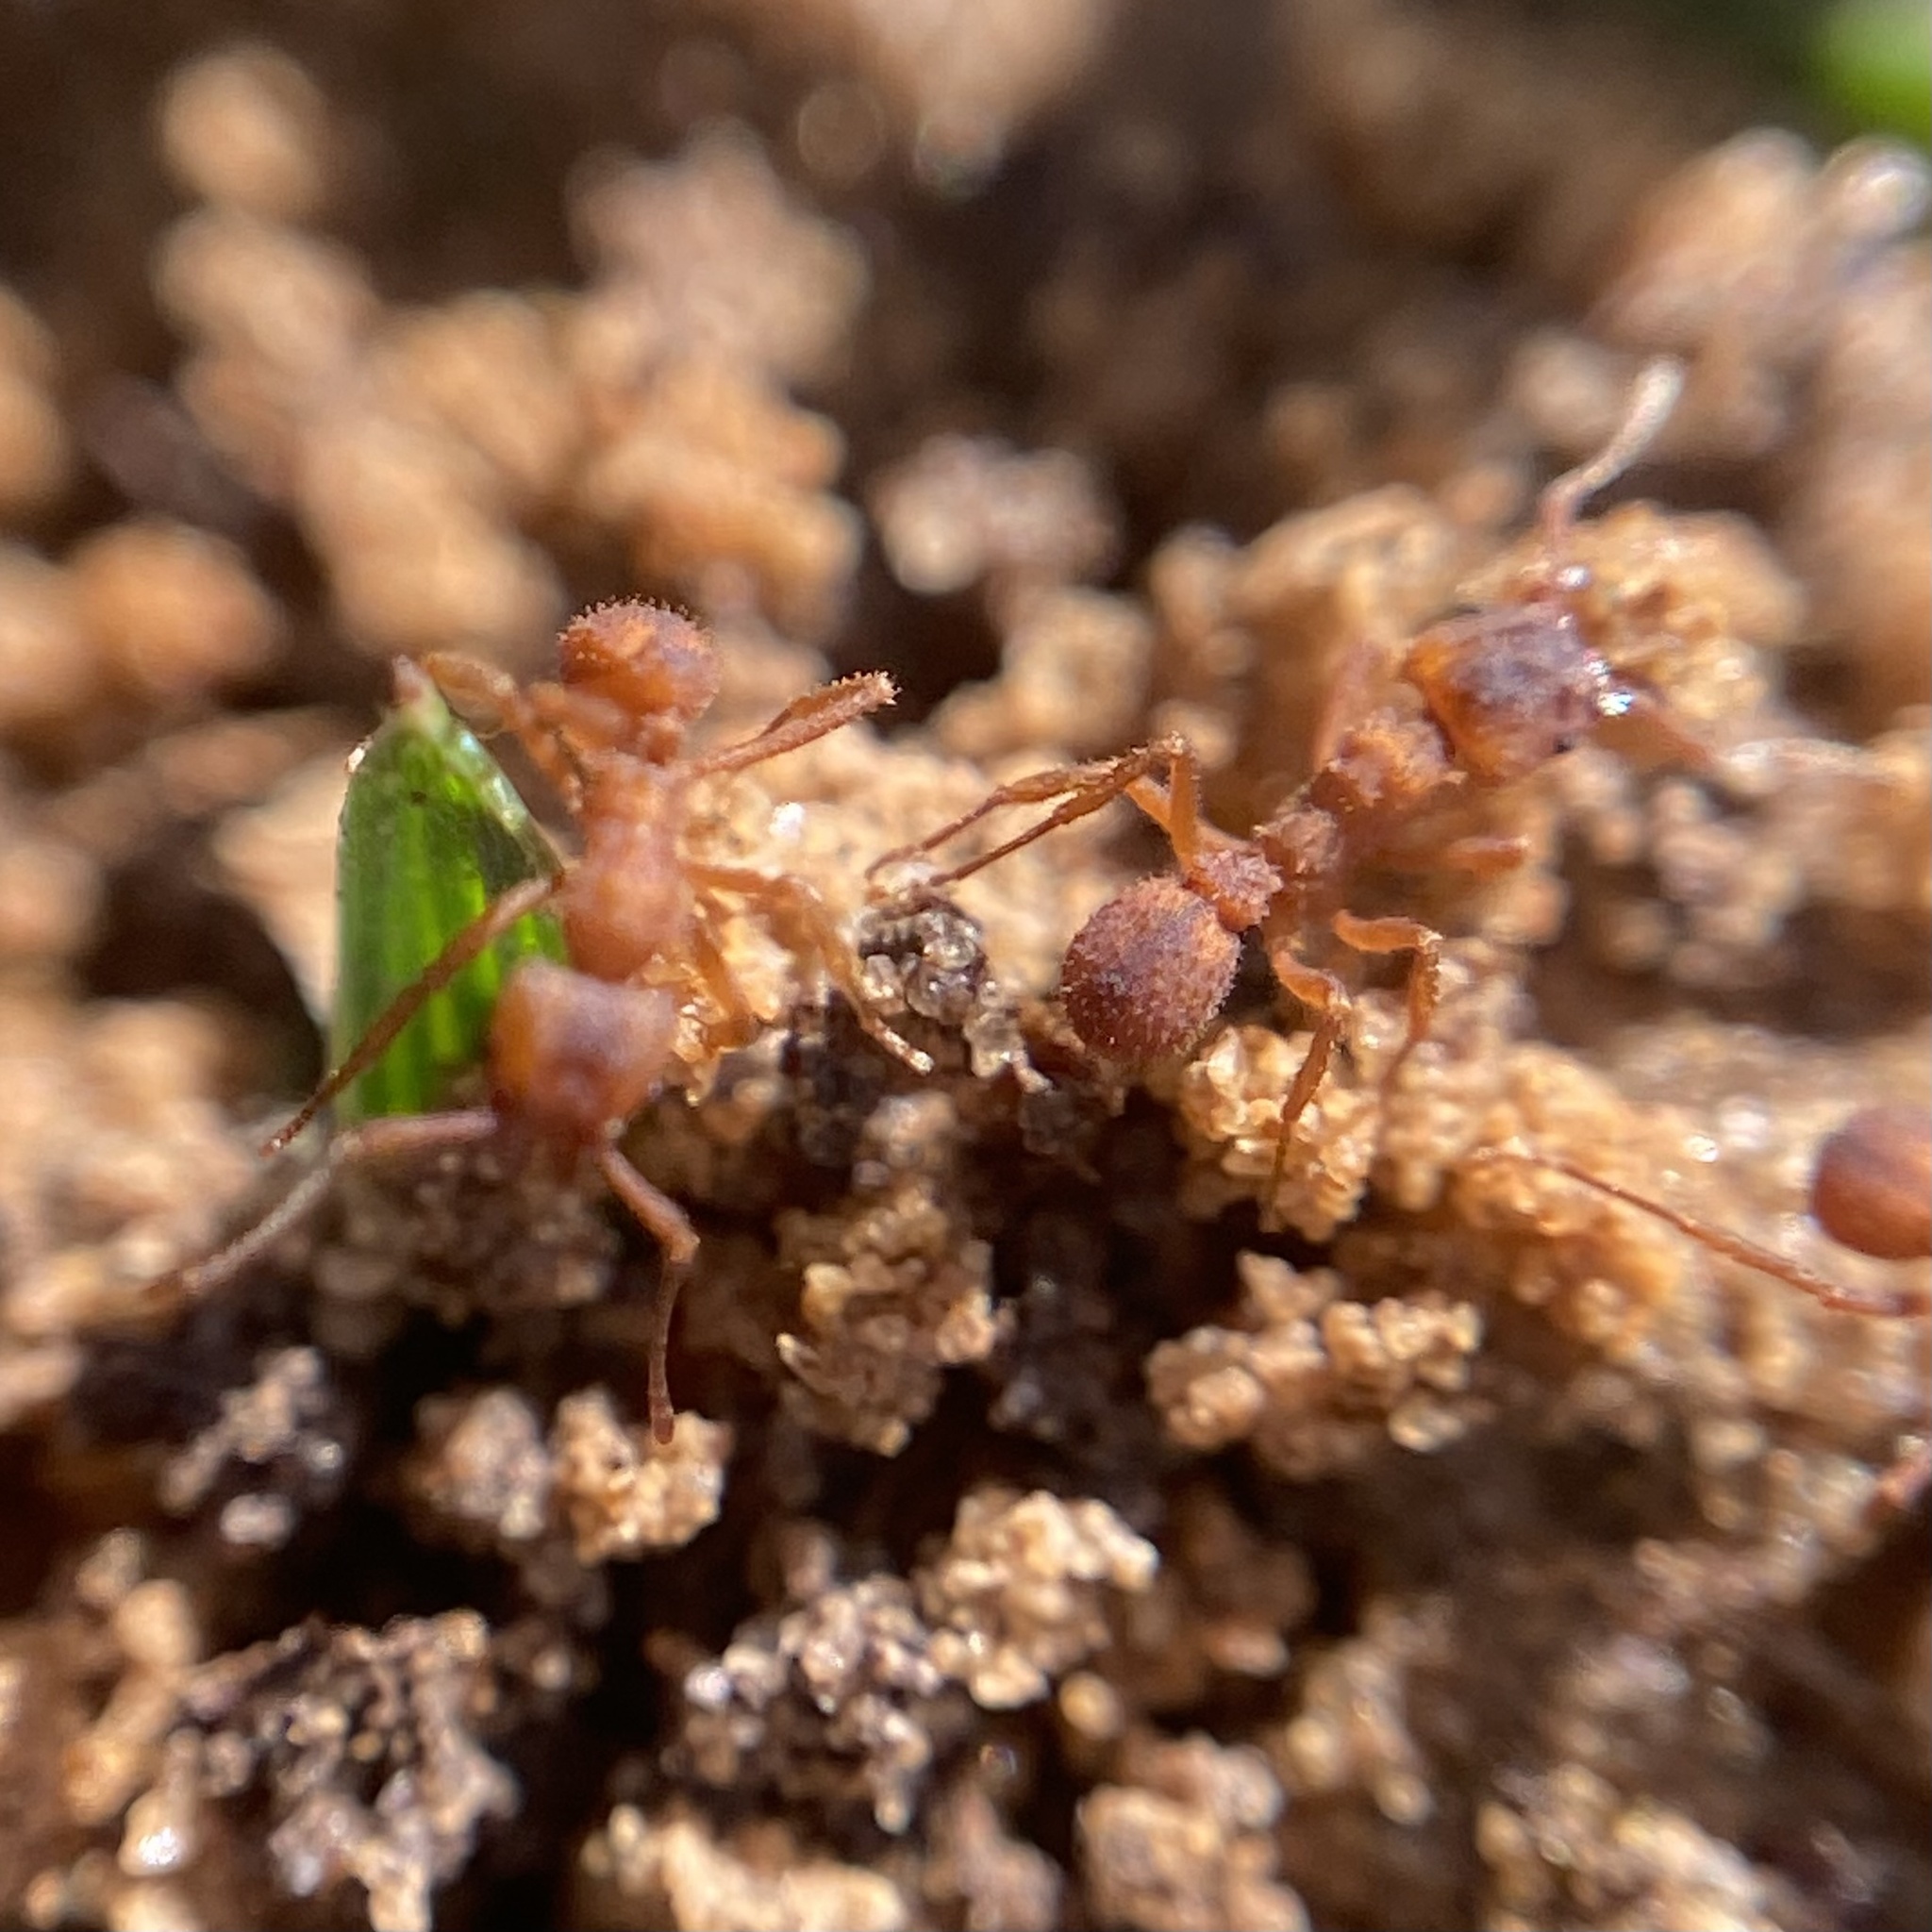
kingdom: Animalia
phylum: Arthropoda
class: Insecta
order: Hymenoptera
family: Formicidae
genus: Trachymyrmex
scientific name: Trachymyrmex septentrionalis
